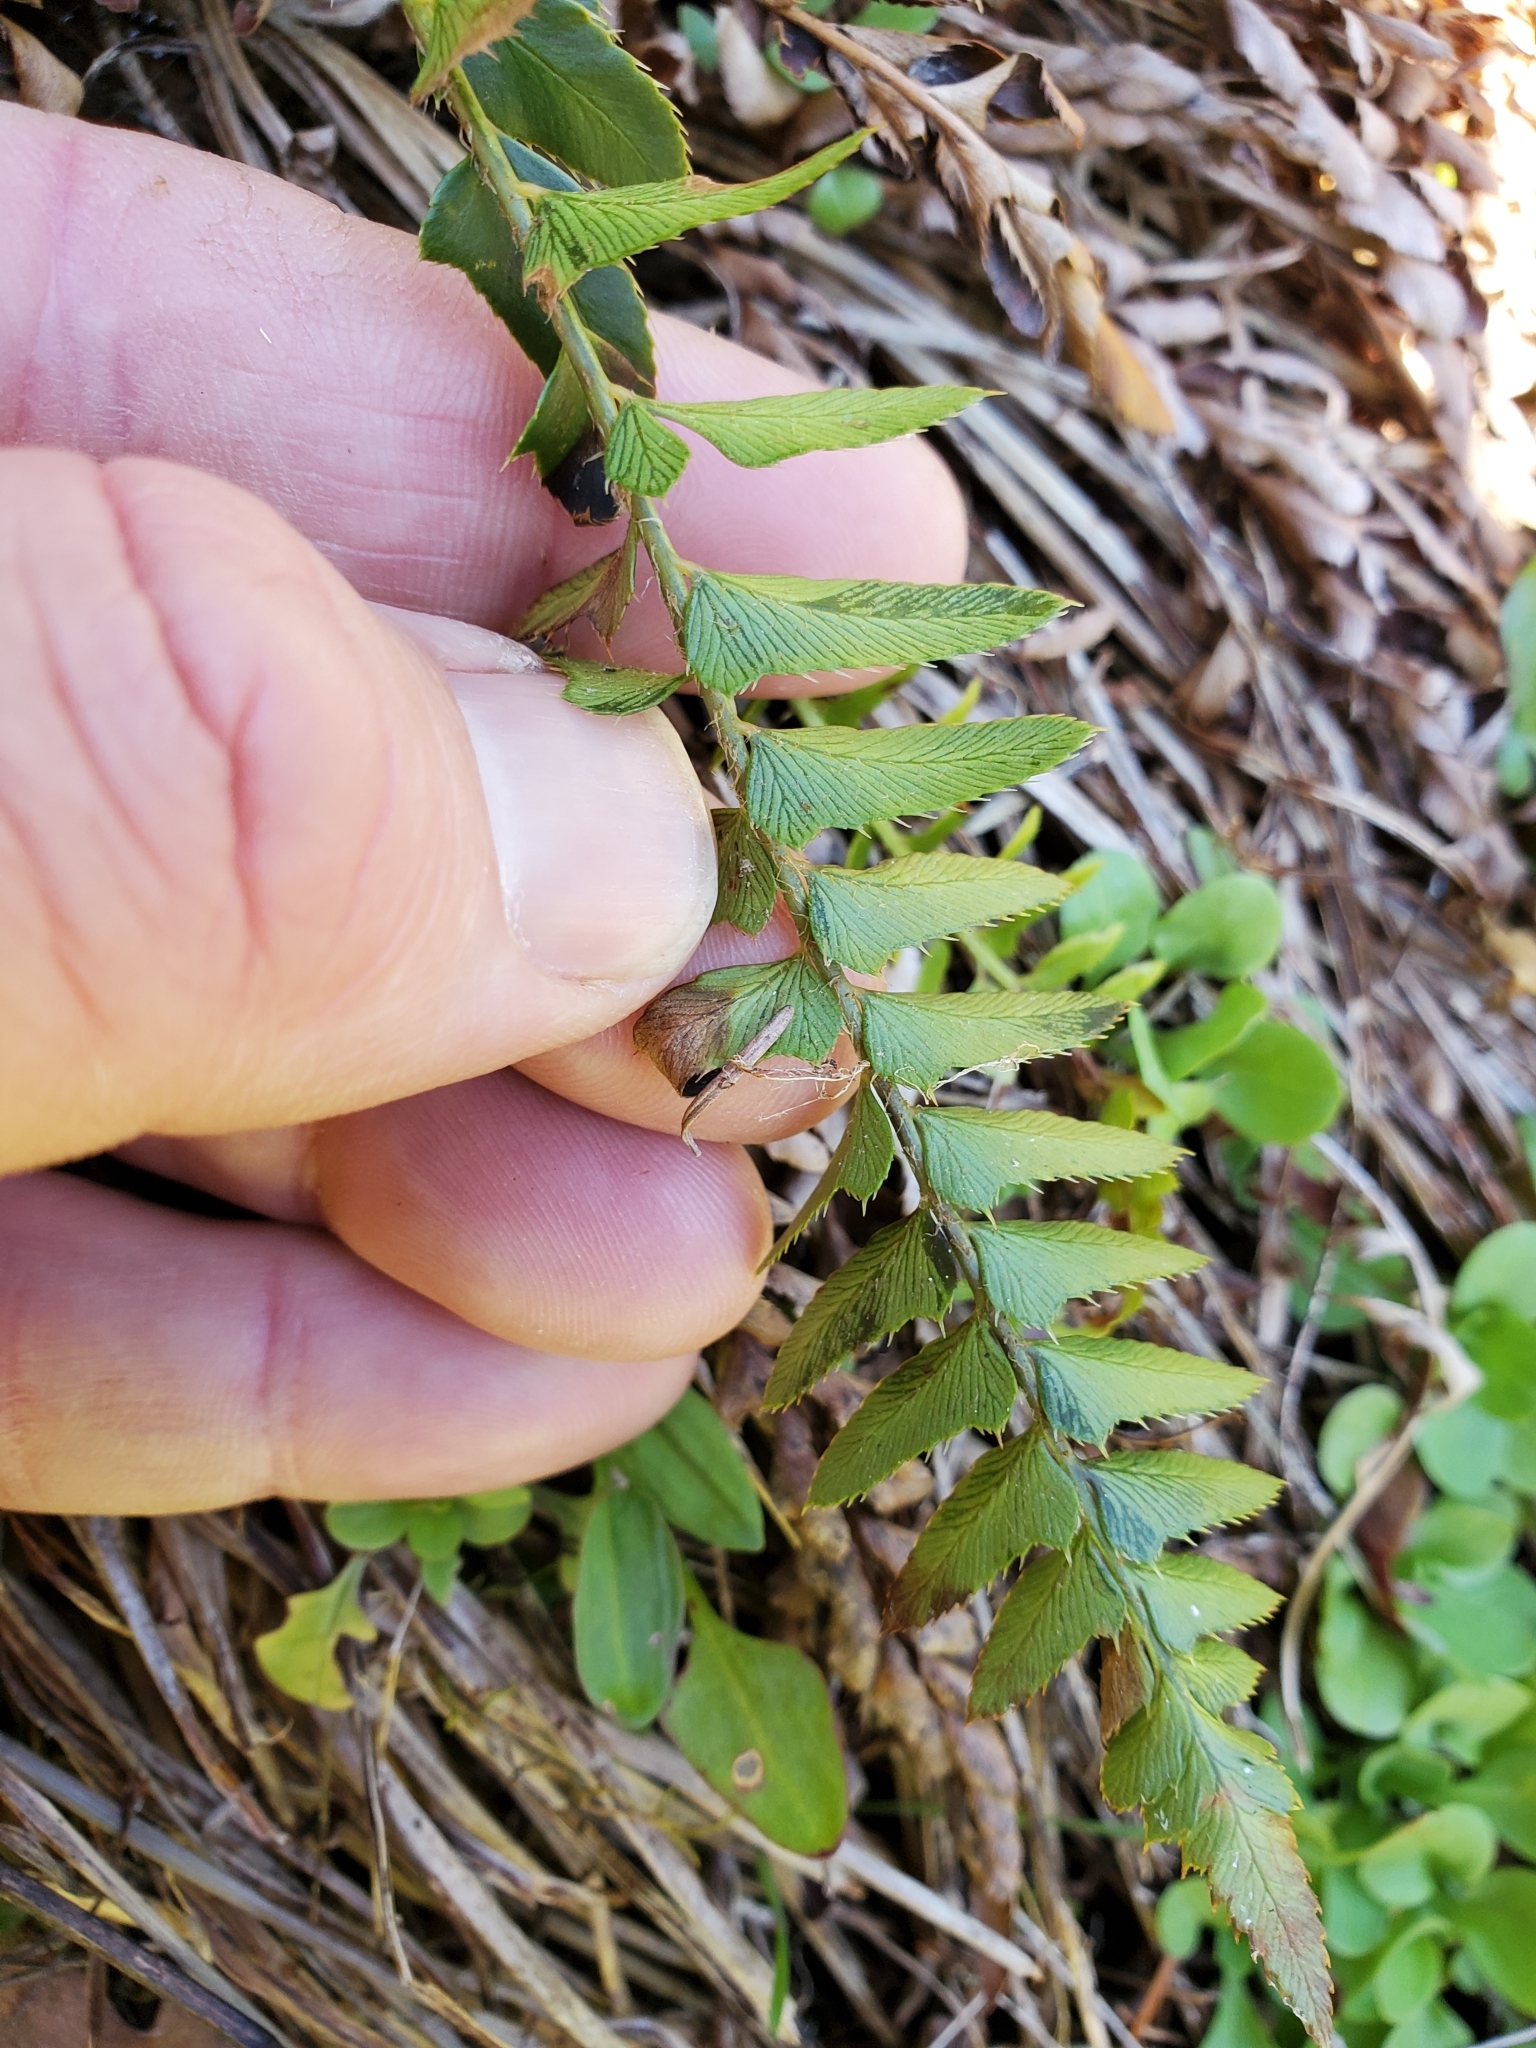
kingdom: Plantae
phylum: Tracheophyta
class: Polypodiopsida
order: Polypodiales
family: Dryopteridaceae
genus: Polystichum
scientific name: Polystichum imbricans
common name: Dwarf western sword fern
